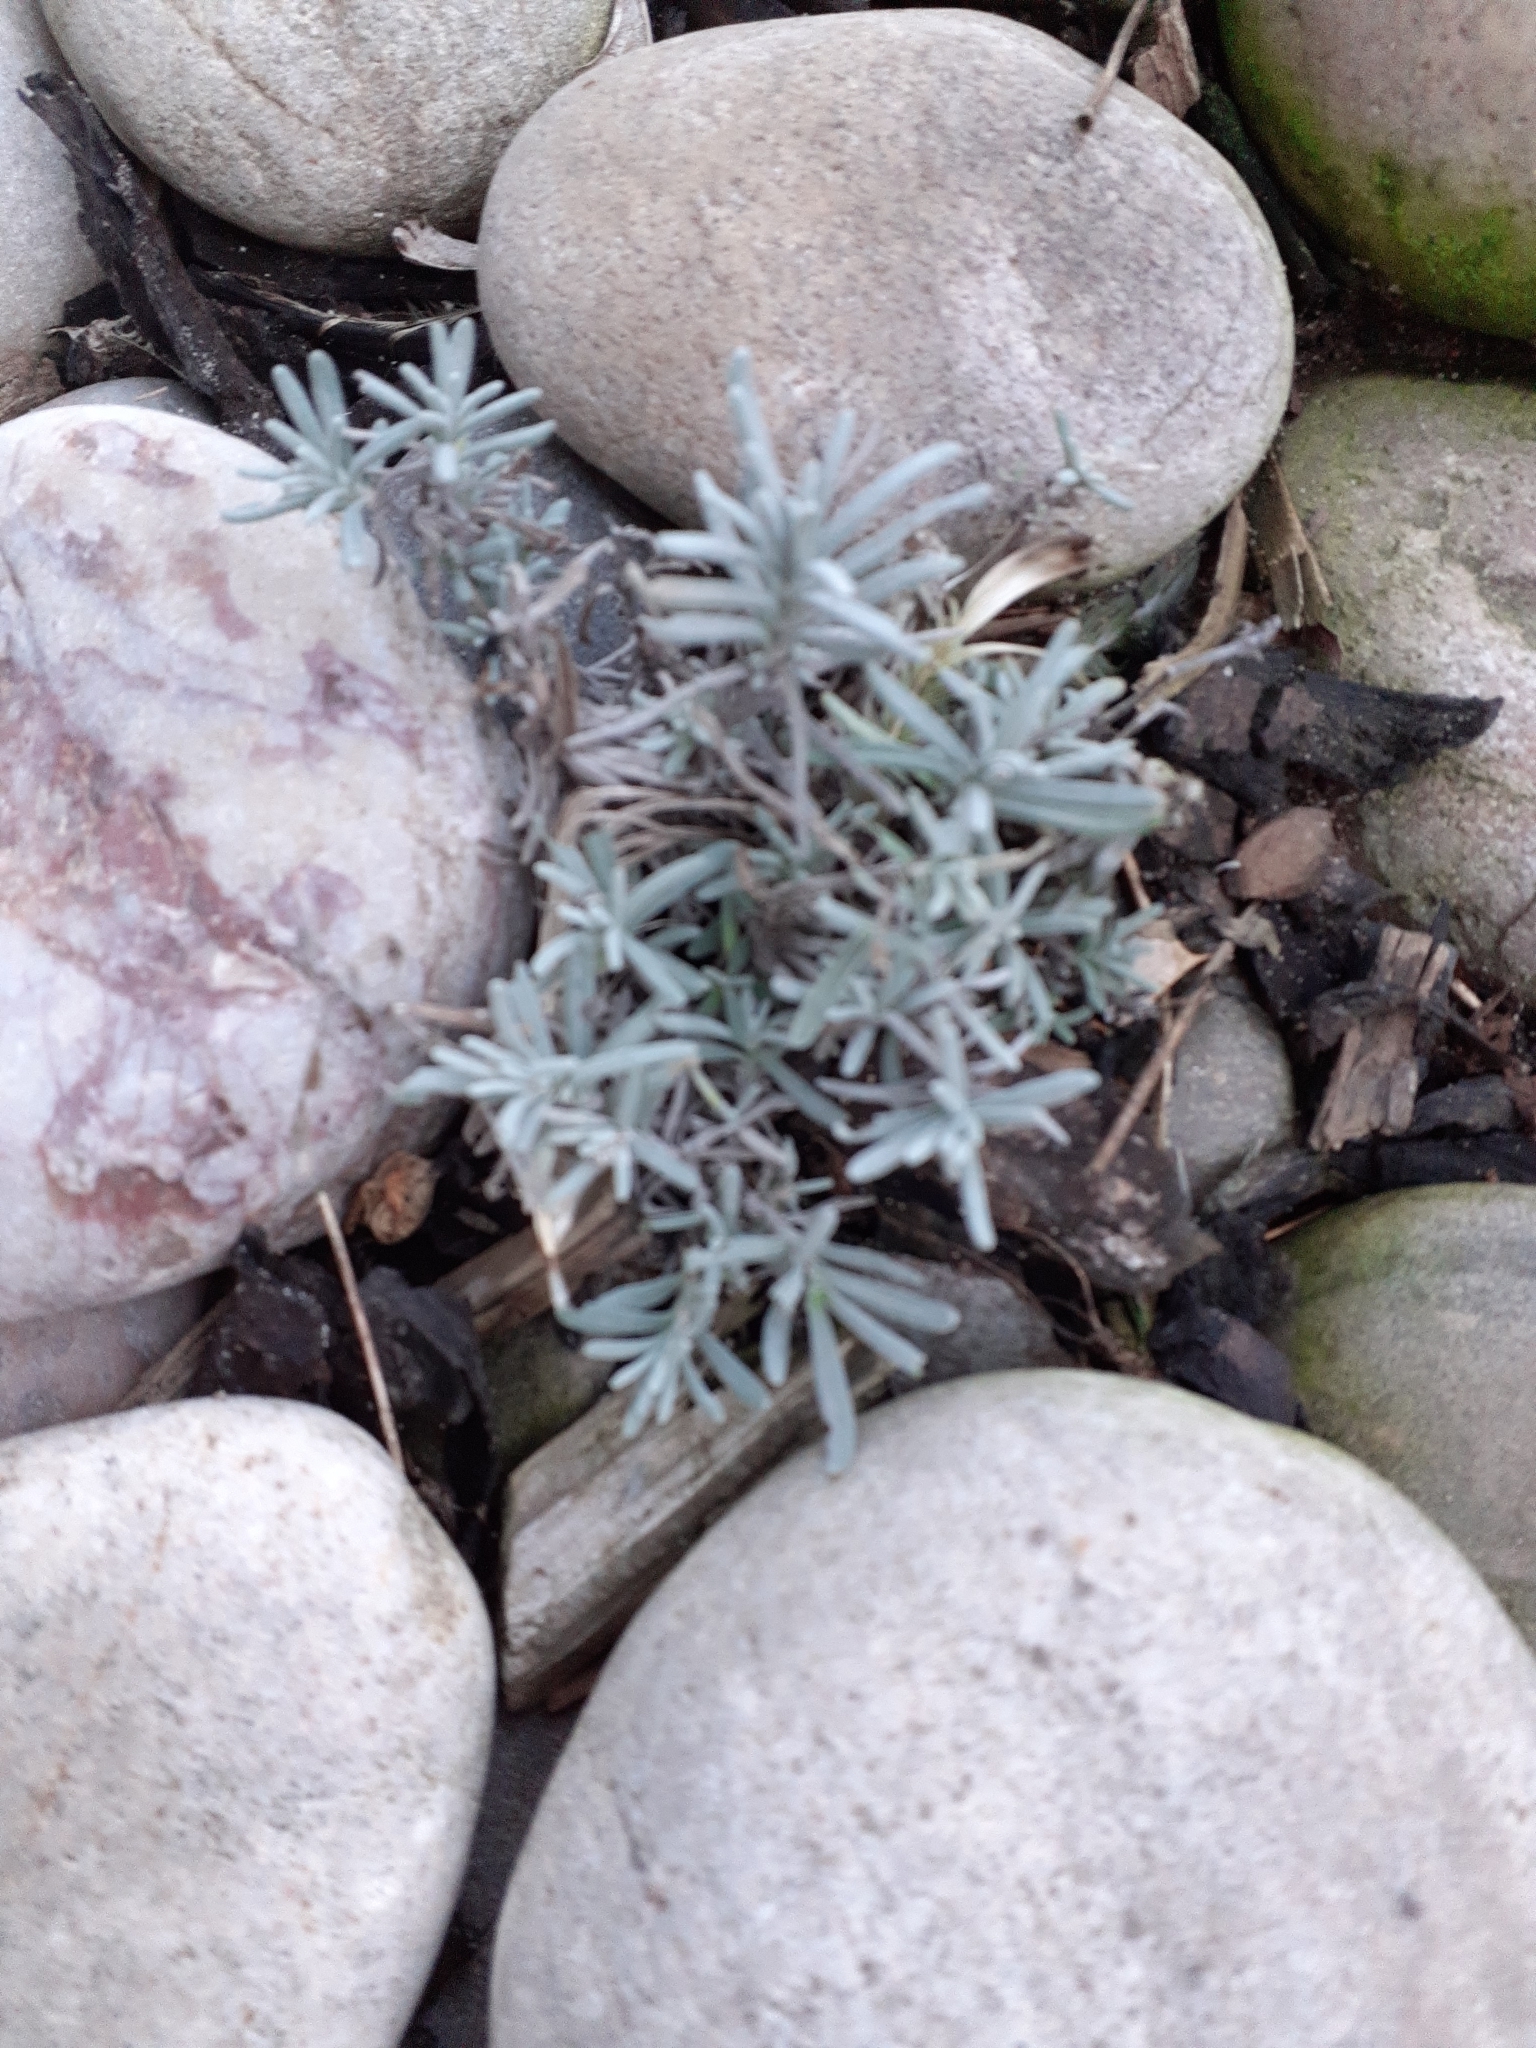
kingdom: Plantae
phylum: Tracheophyta
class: Magnoliopsida
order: Lamiales
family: Lamiaceae
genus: Lavandula
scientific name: Lavandula angustifolia
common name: Garden lavender
